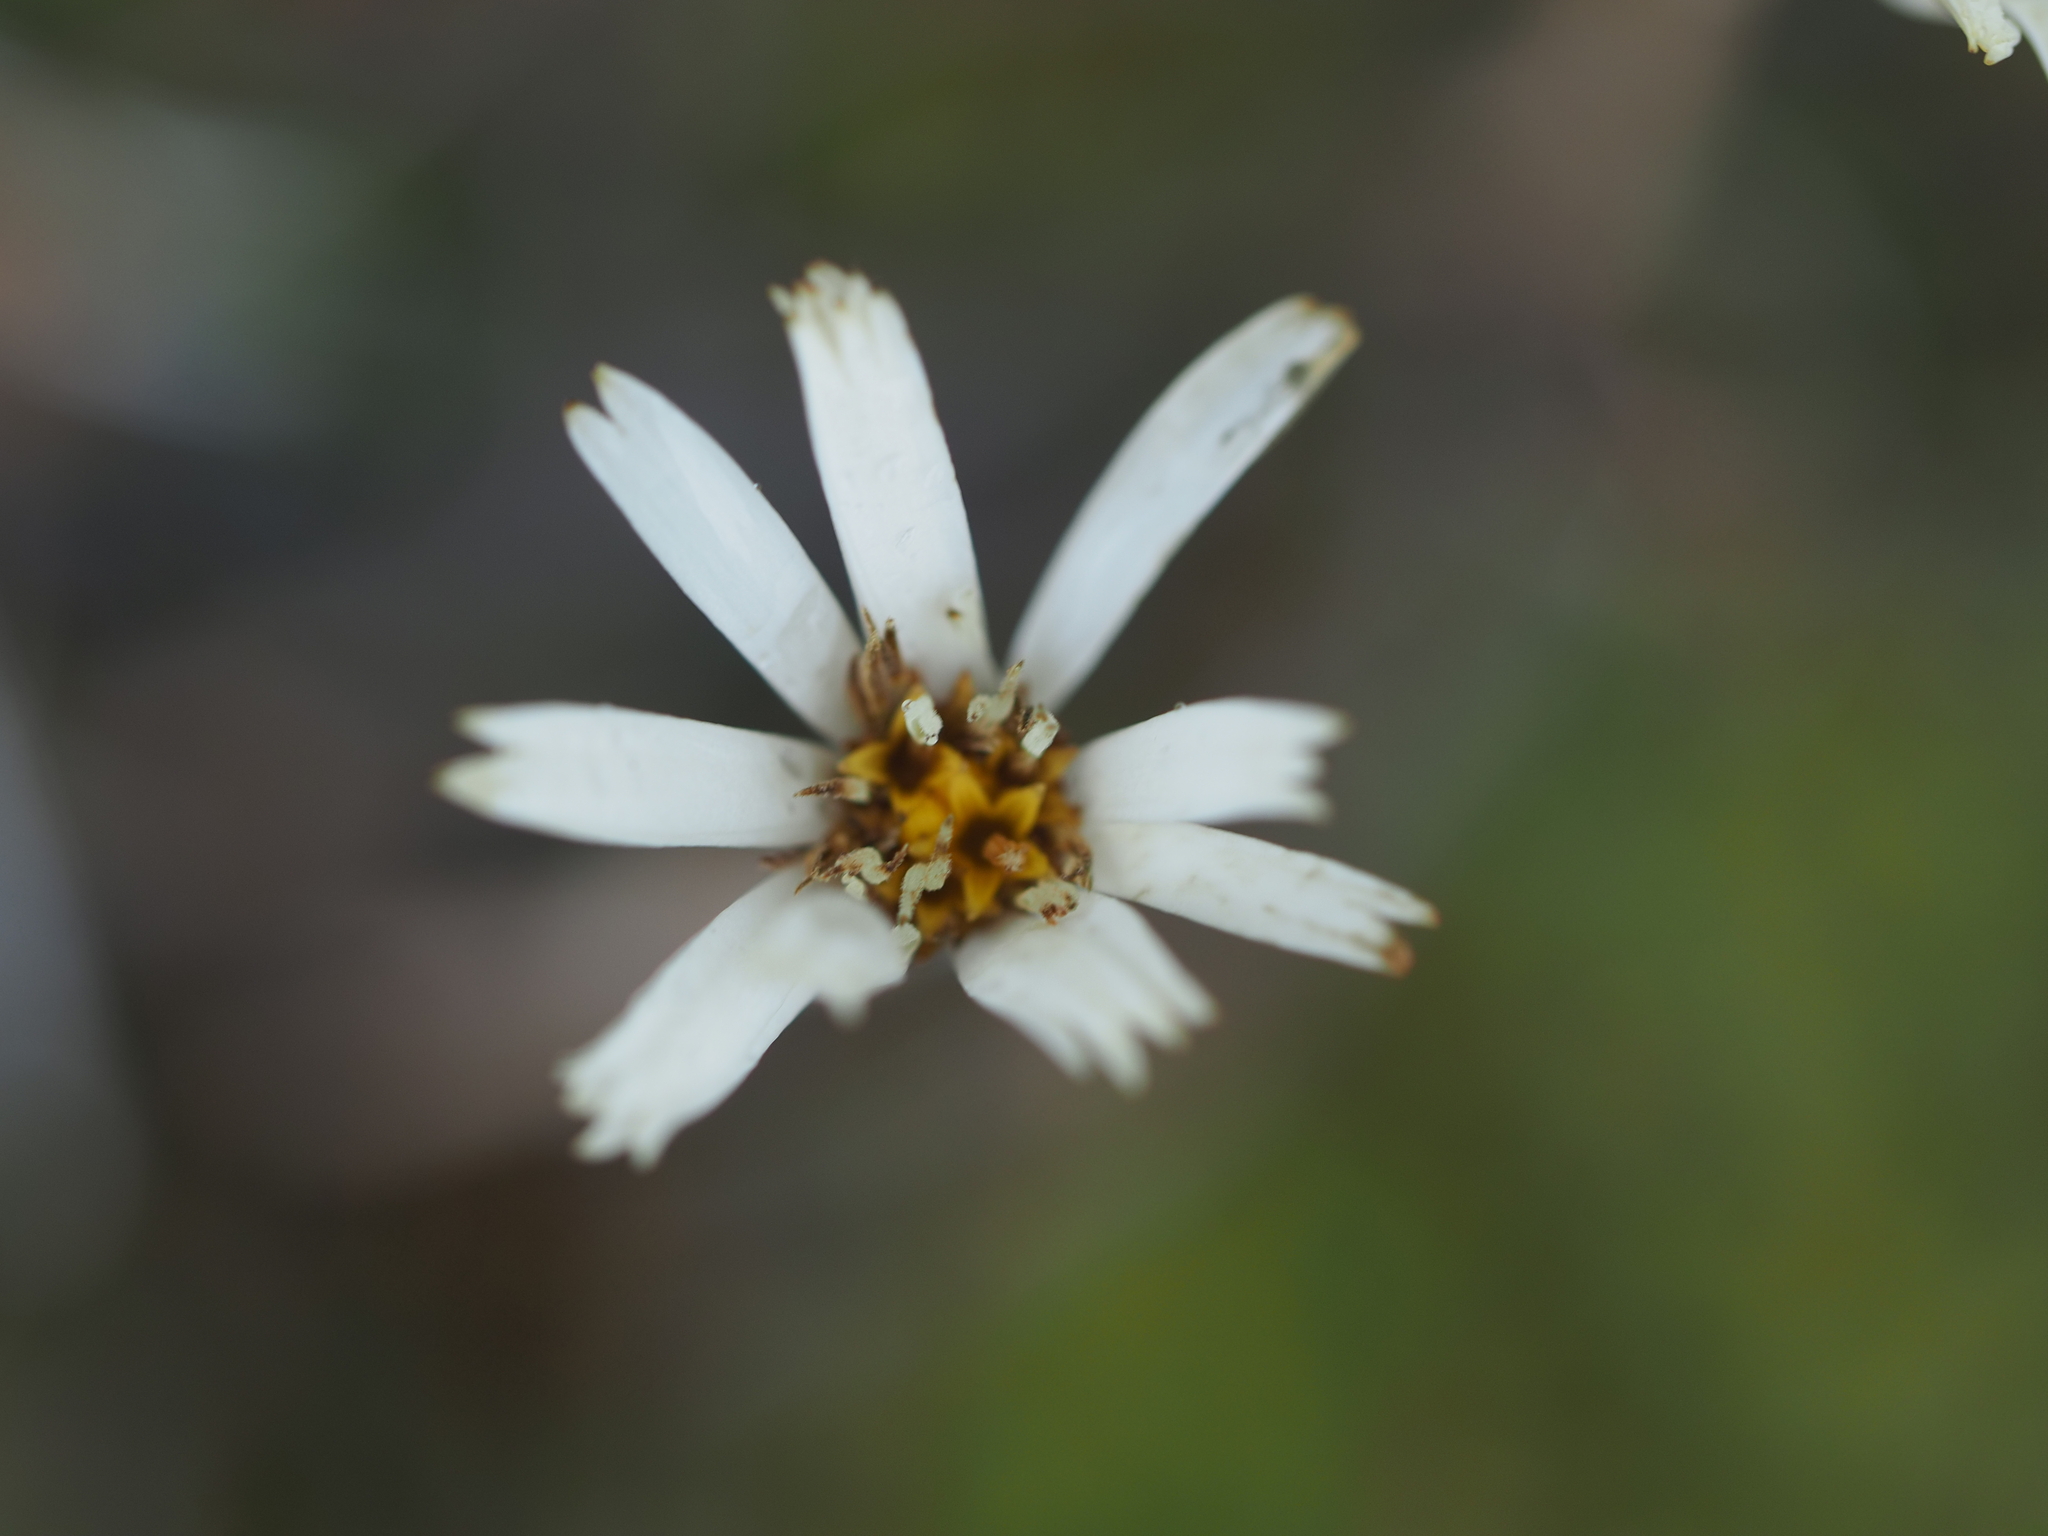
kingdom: Plantae
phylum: Tracheophyta
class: Magnoliopsida
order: Asterales
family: Asteraceae
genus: Celmisia
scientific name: Celmisia gracilenta
